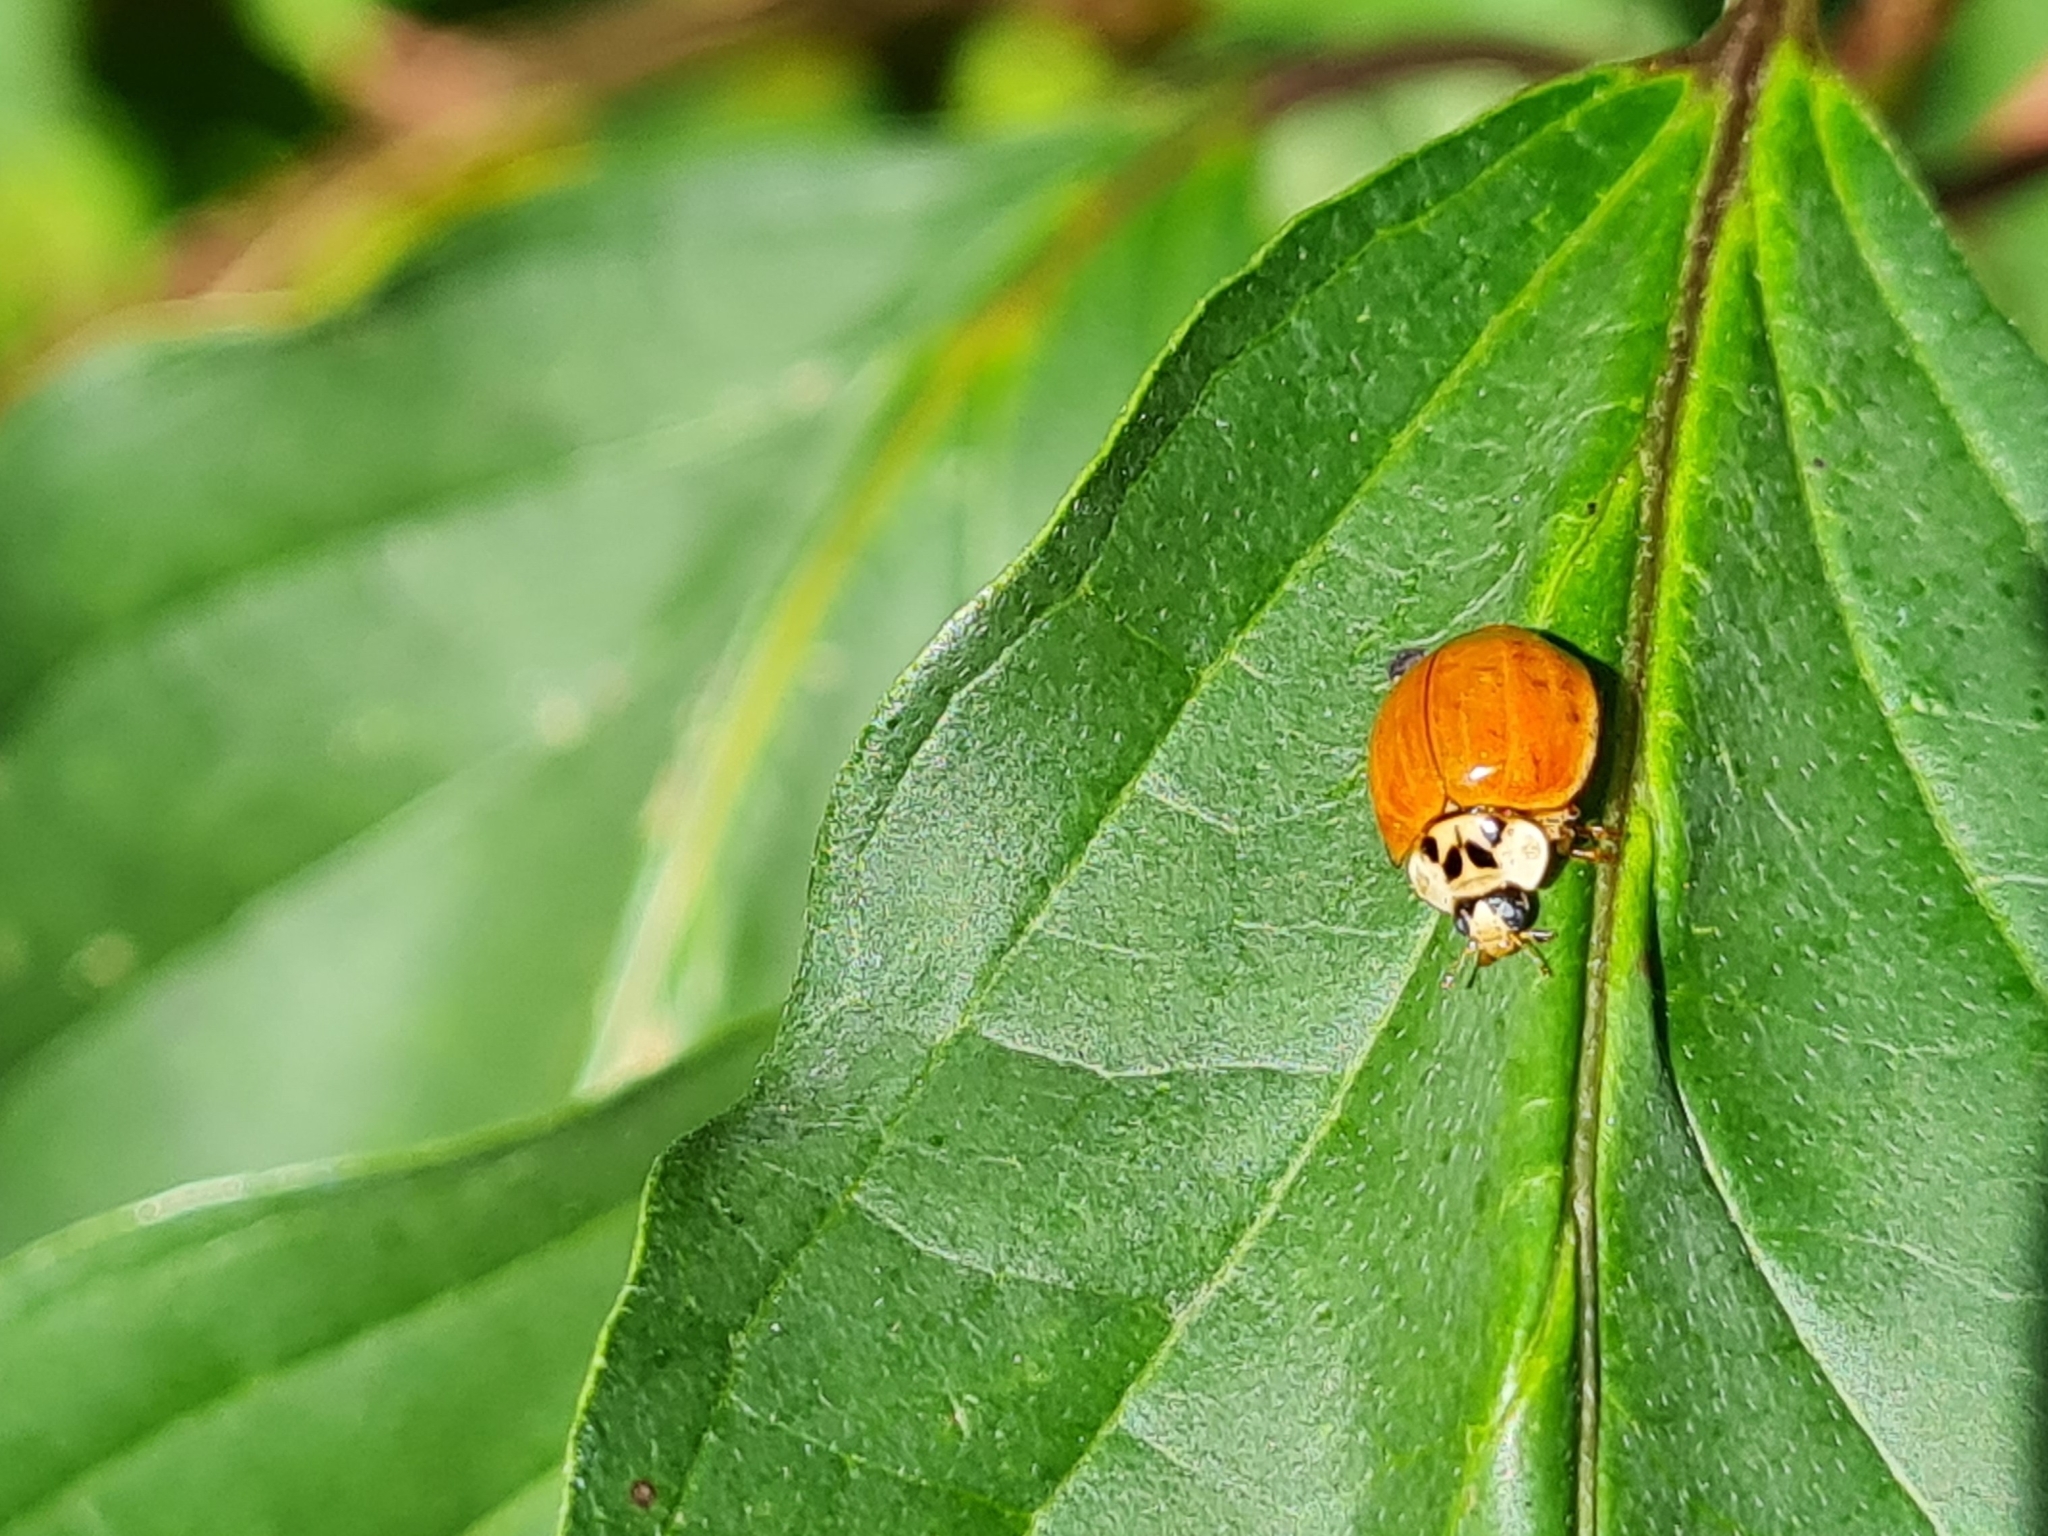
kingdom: Animalia
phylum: Arthropoda
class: Insecta
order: Coleoptera
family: Coccinellidae
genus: Harmonia
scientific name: Harmonia axyridis
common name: Harlequin ladybird
